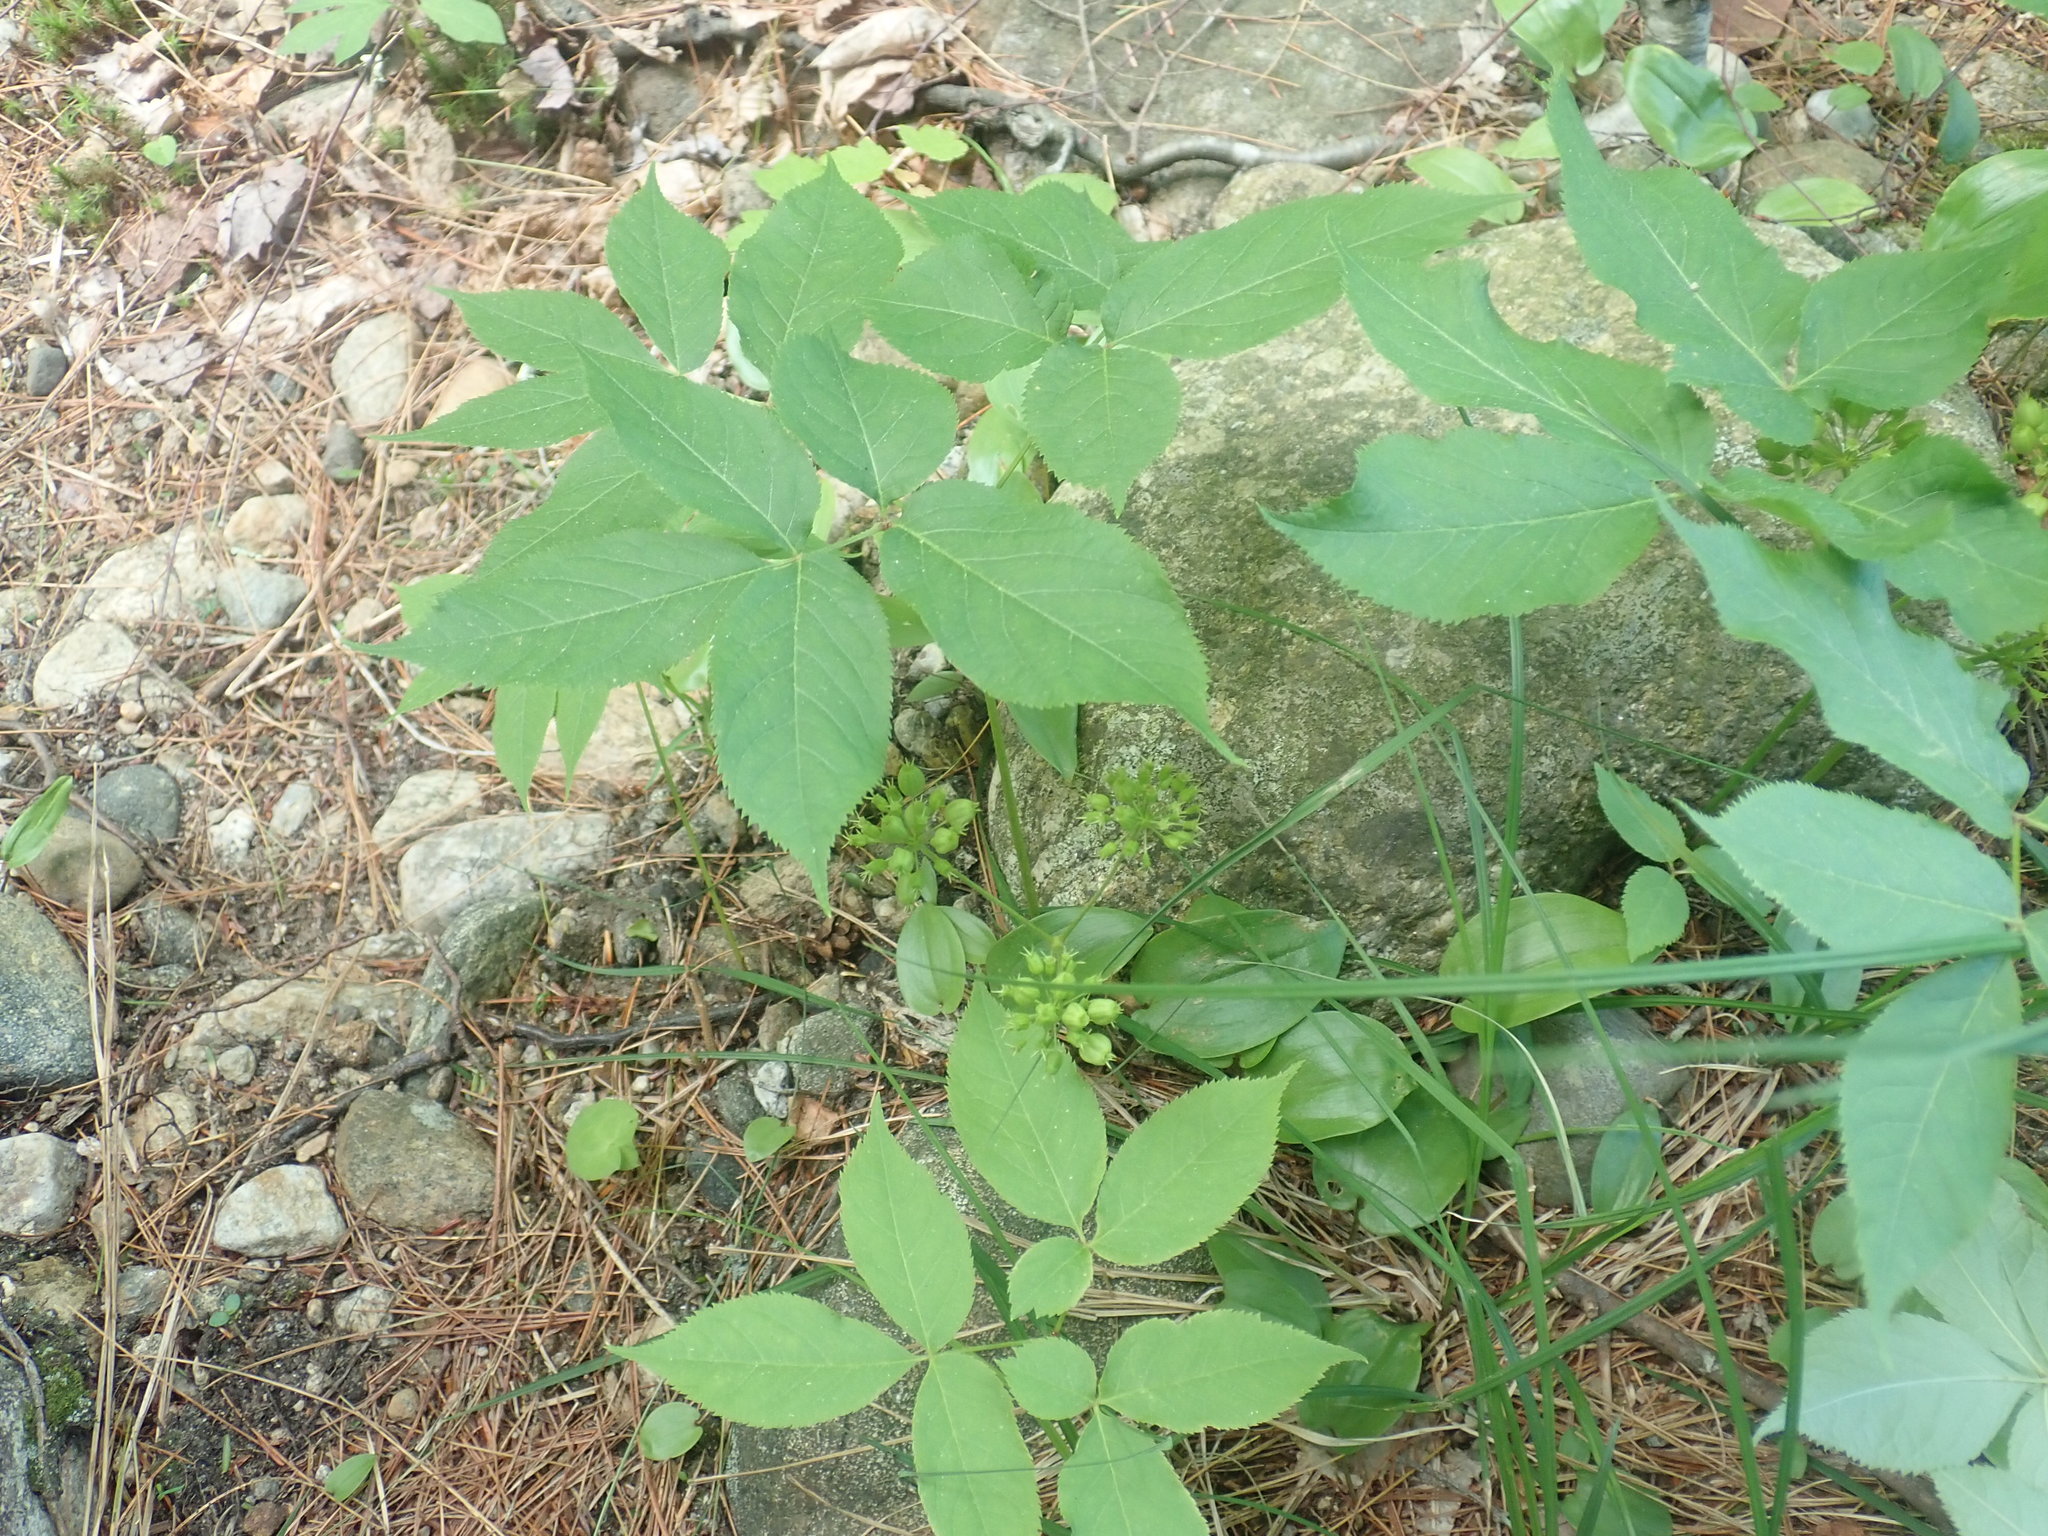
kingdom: Plantae
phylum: Tracheophyta
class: Magnoliopsida
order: Apiales
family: Araliaceae
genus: Aralia
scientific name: Aralia nudicaulis
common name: Wild sarsaparilla
